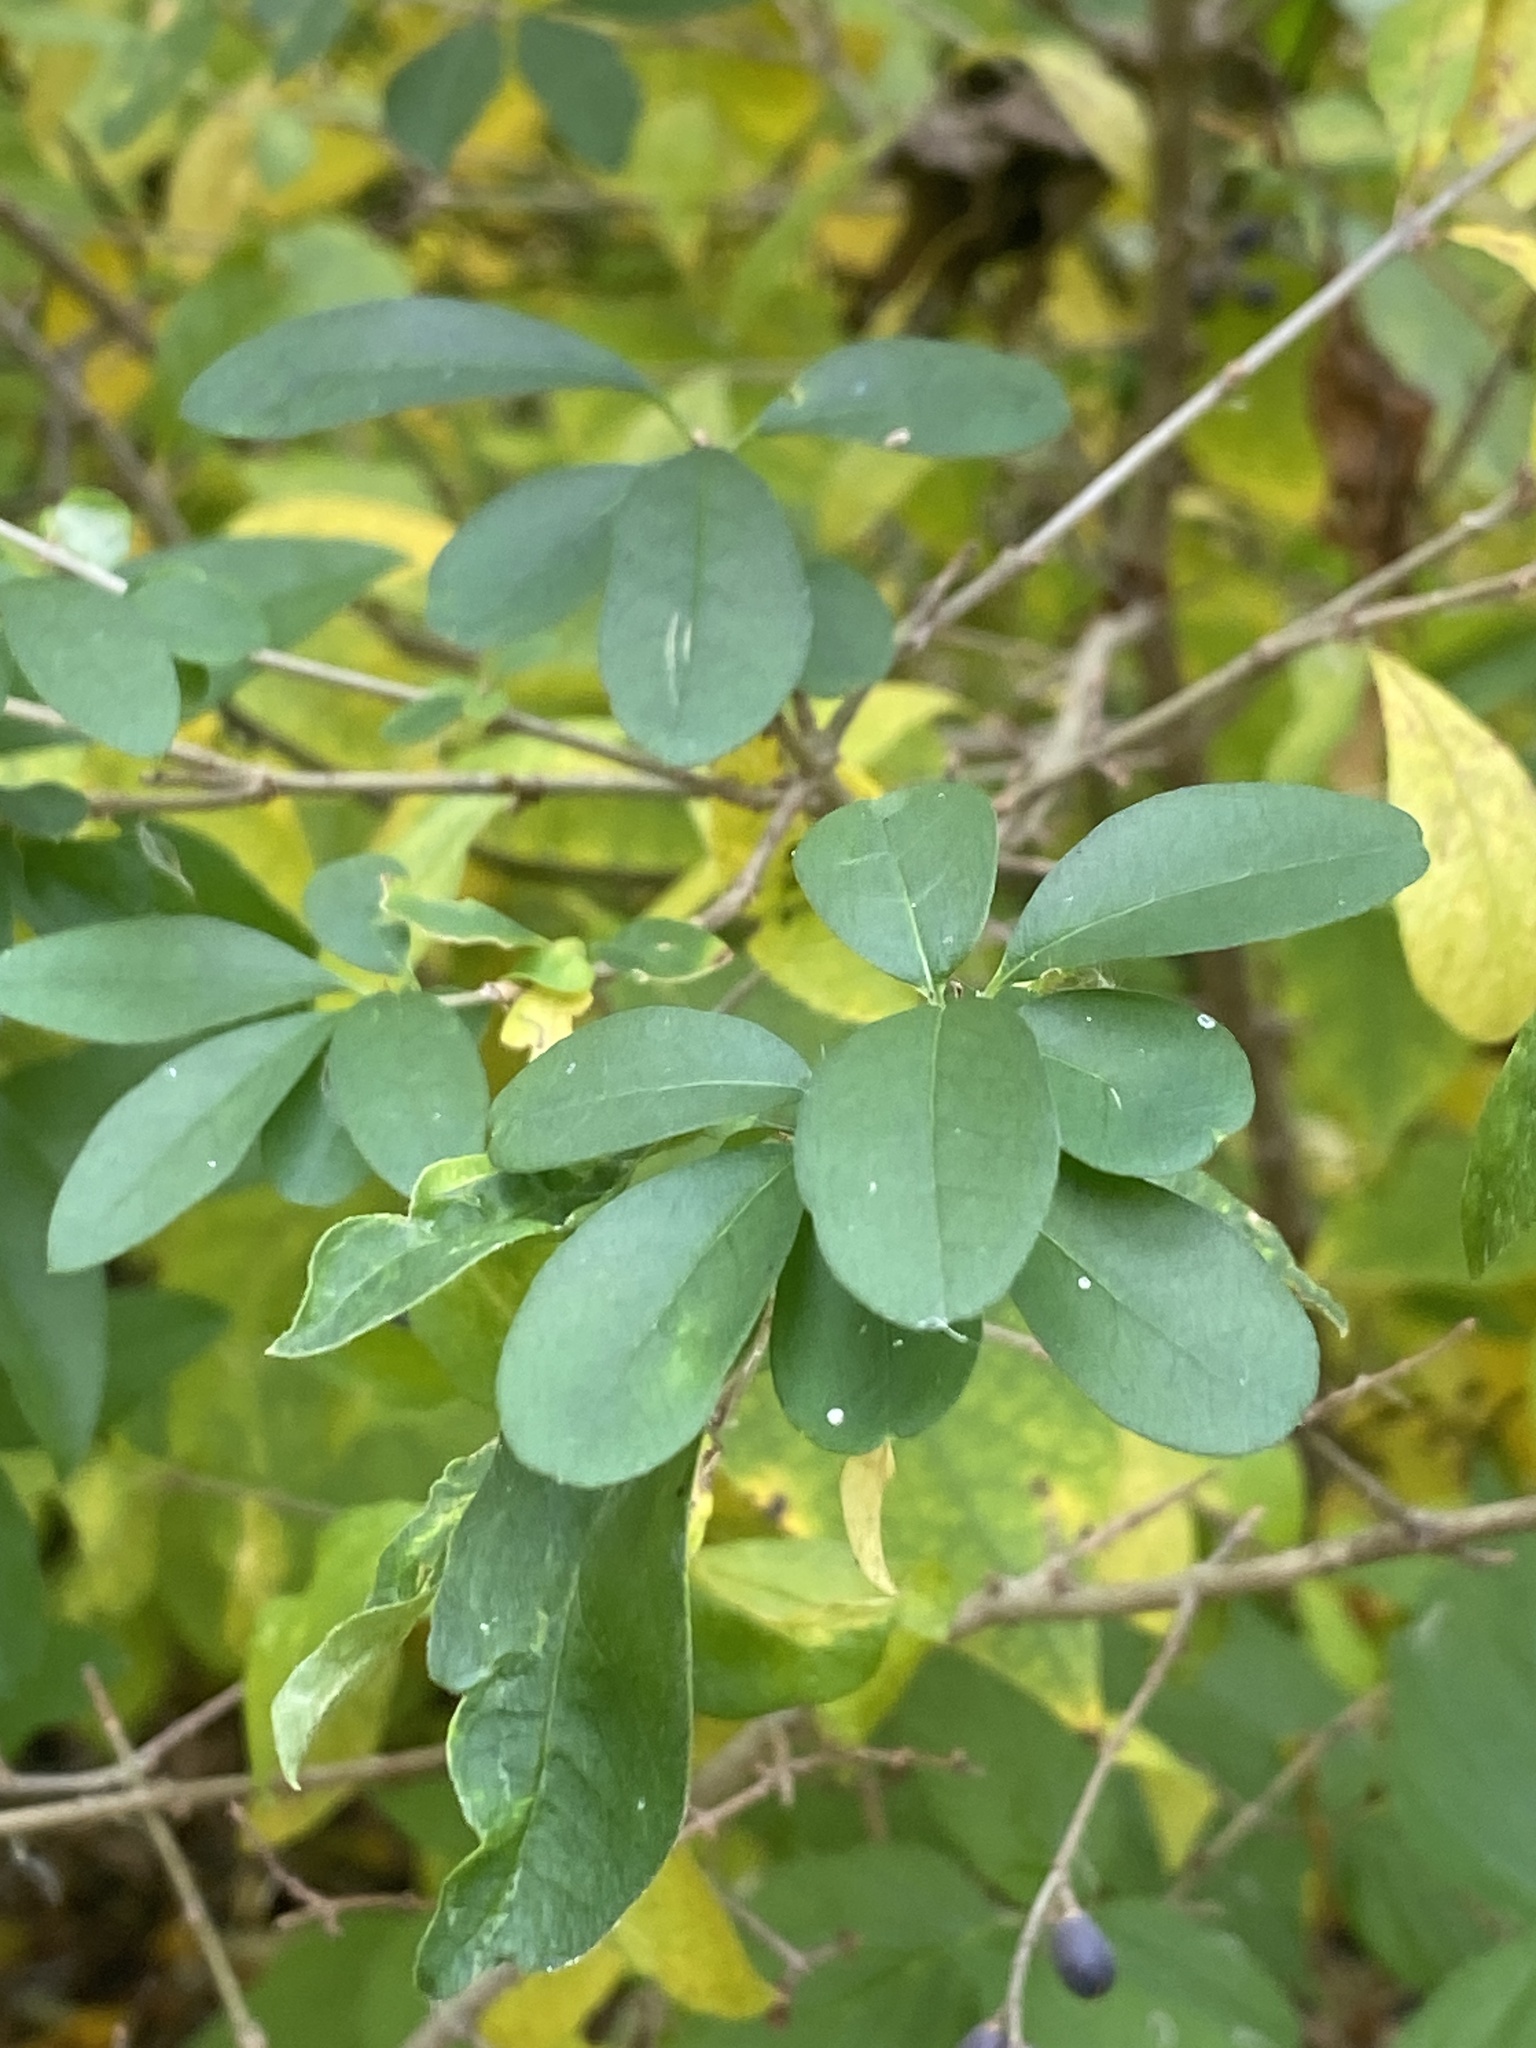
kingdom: Plantae
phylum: Tracheophyta
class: Magnoliopsida
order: Lamiales
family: Oleaceae
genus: Ligustrum
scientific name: Ligustrum obtusifolium
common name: Border privet
